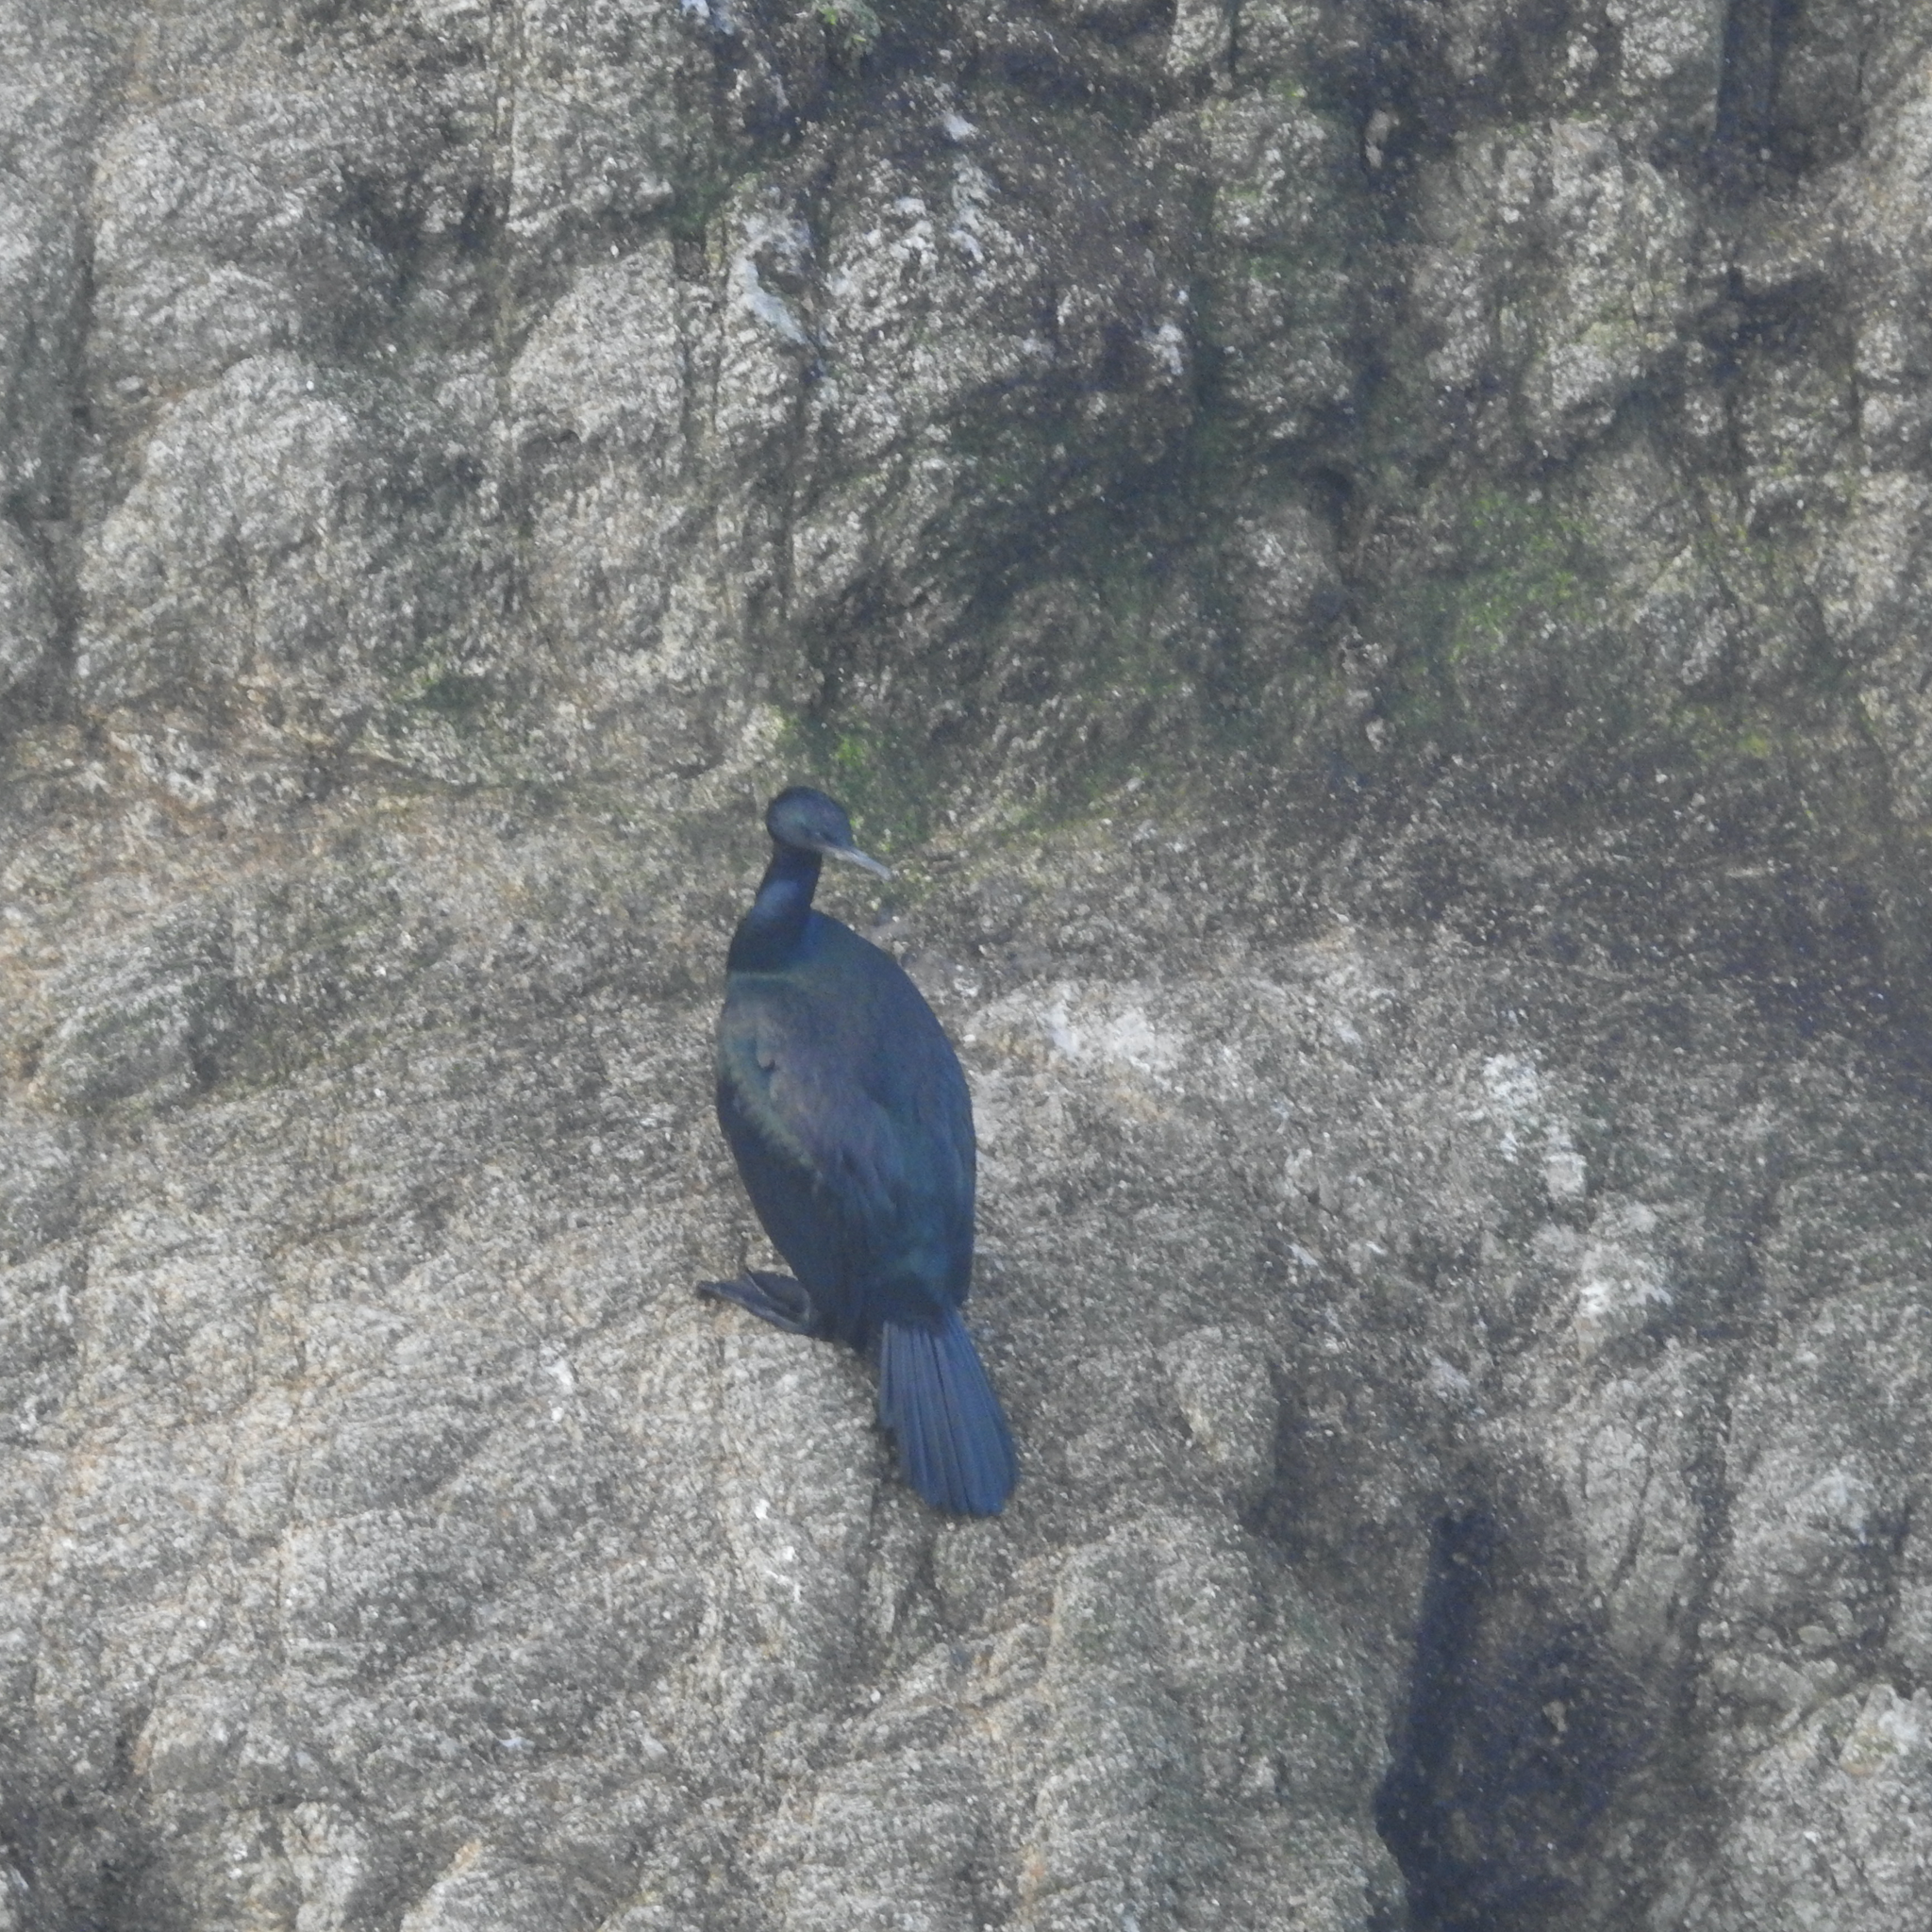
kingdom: Animalia
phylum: Chordata
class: Aves
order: Suliformes
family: Phalacrocoracidae
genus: Phalacrocorax
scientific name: Phalacrocorax pelagicus
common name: Pelagic cormorant
